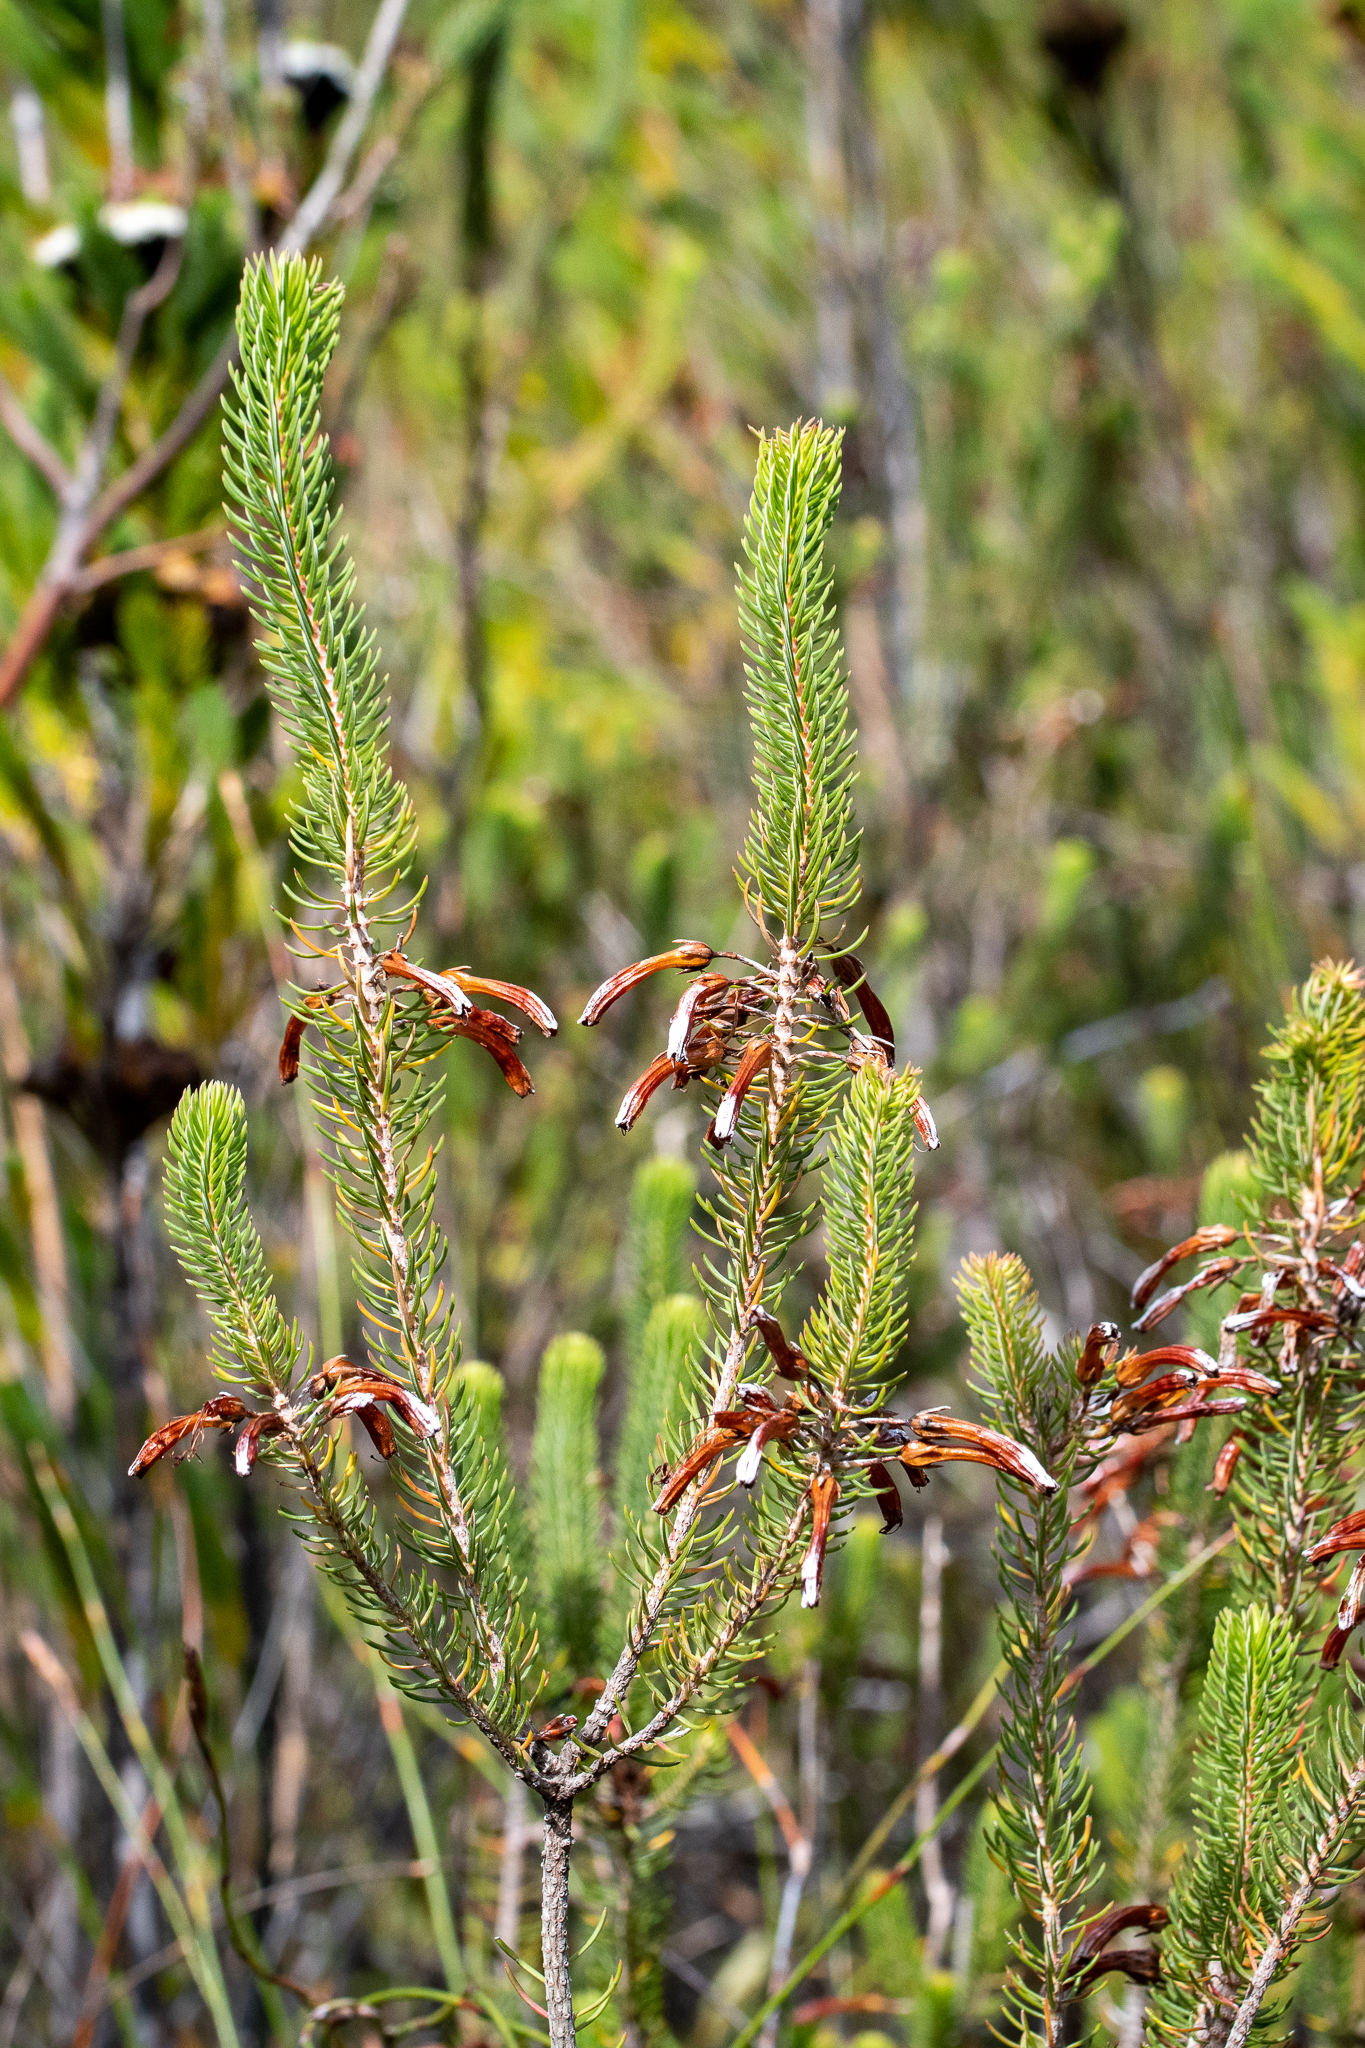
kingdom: Plantae
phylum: Tracheophyta
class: Magnoliopsida
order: Ericales
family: Ericaceae
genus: Erica
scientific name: Erica thomae
